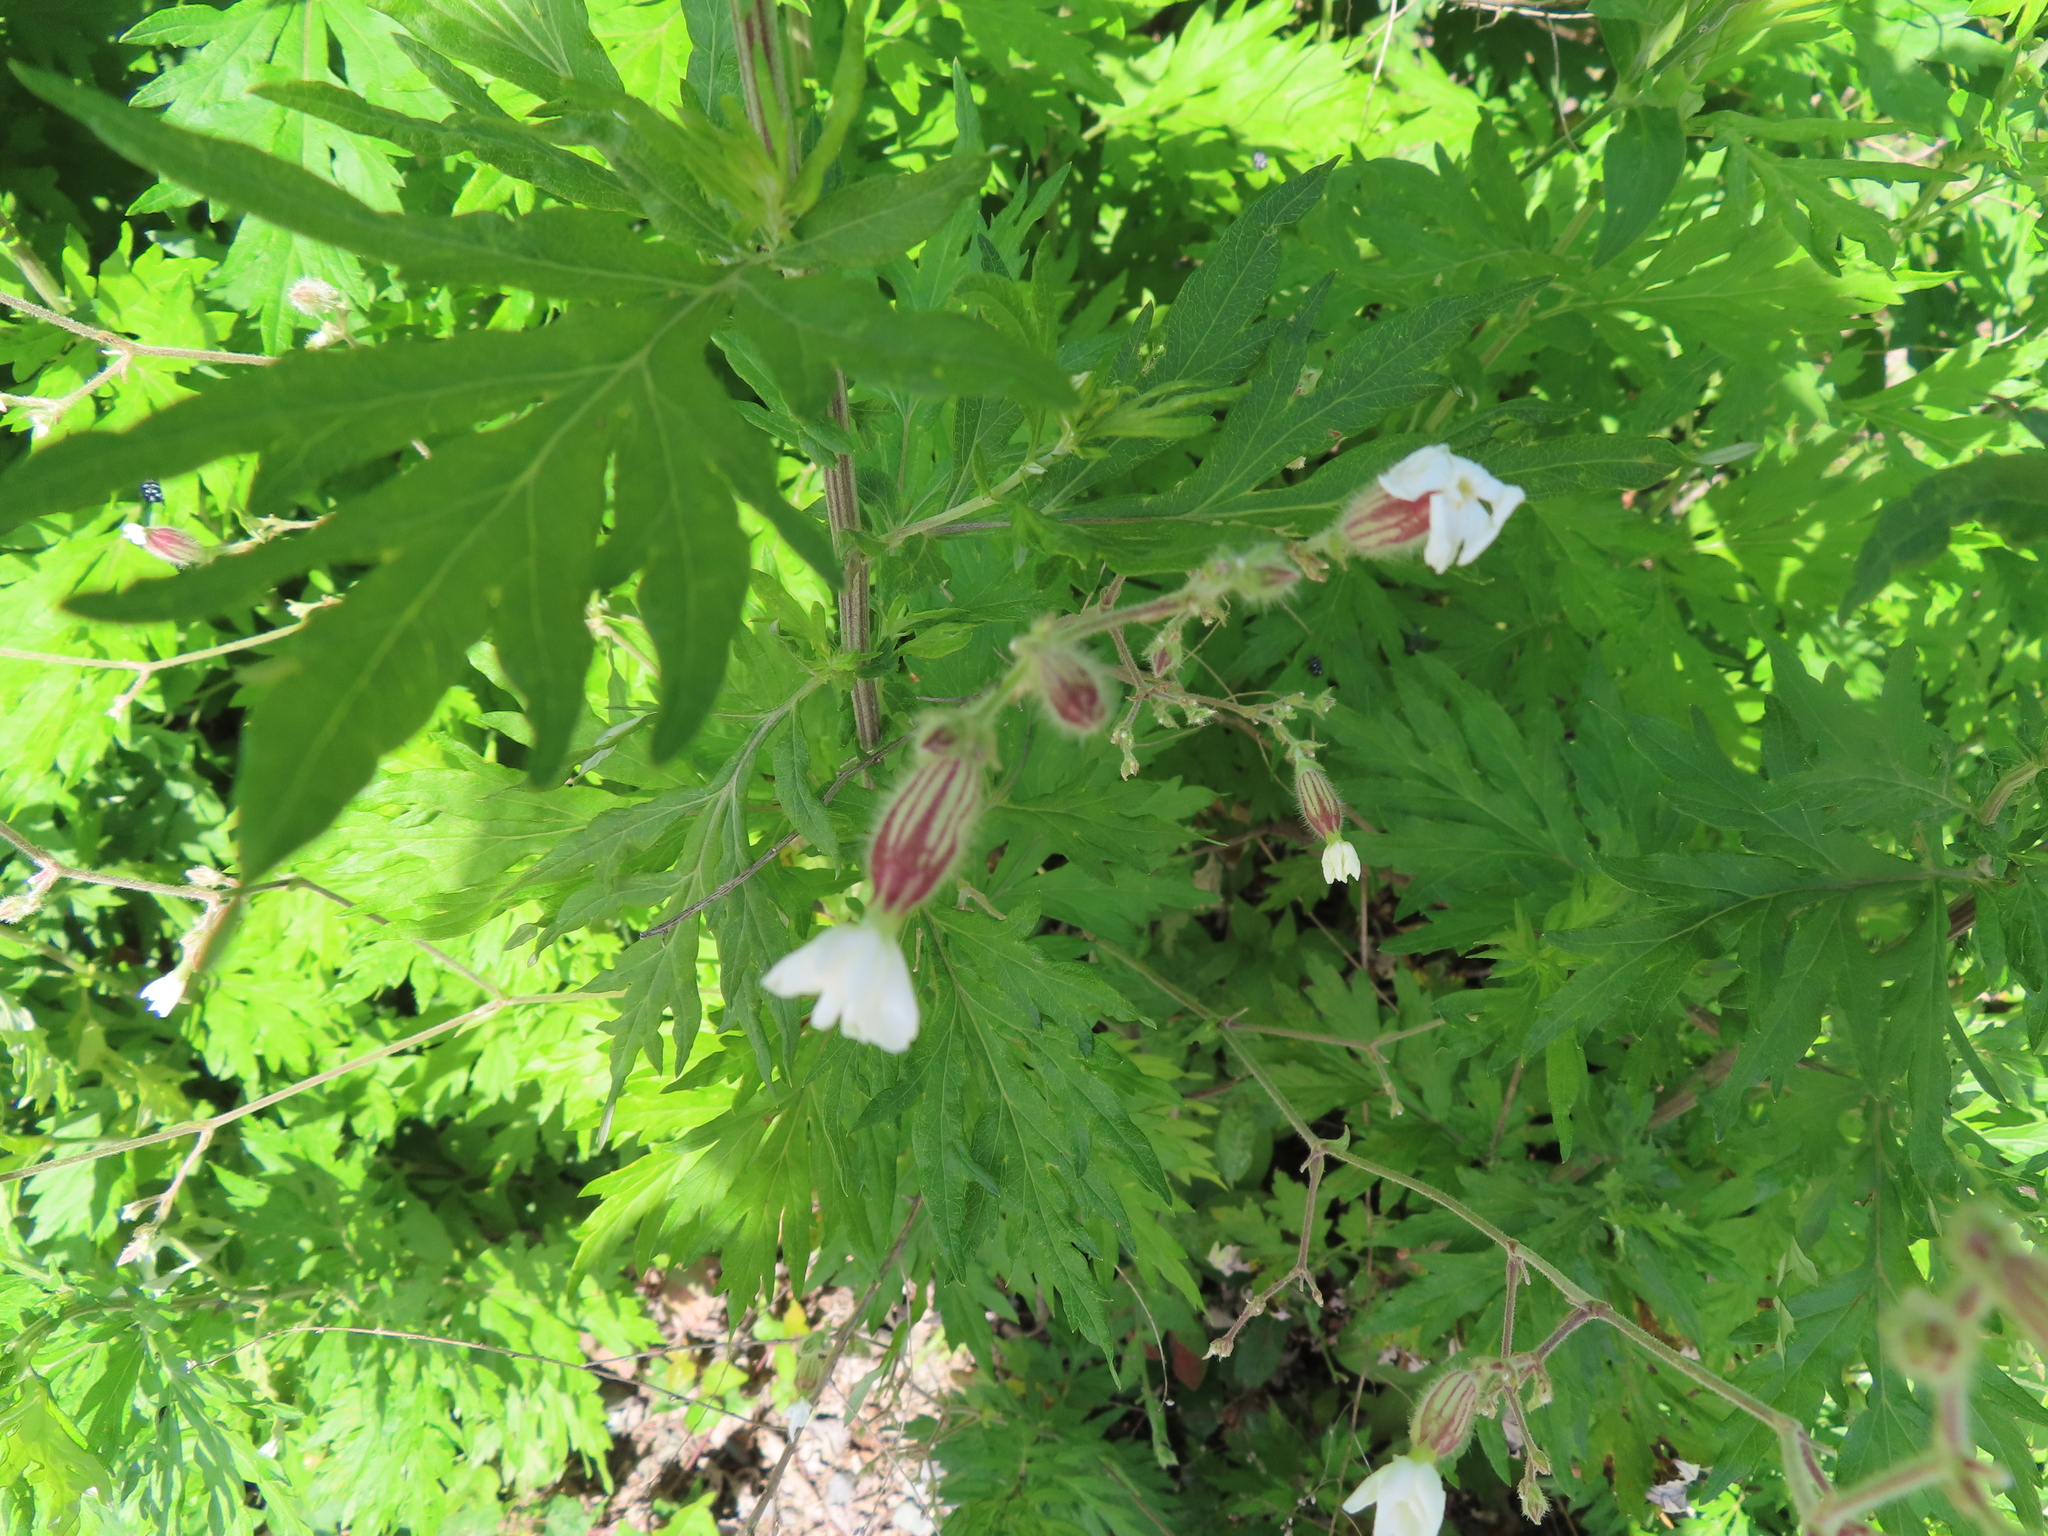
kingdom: Plantae
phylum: Tracheophyta
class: Magnoliopsida
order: Caryophyllales
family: Caryophyllaceae
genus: Silene
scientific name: Silene latifolia
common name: White campion
